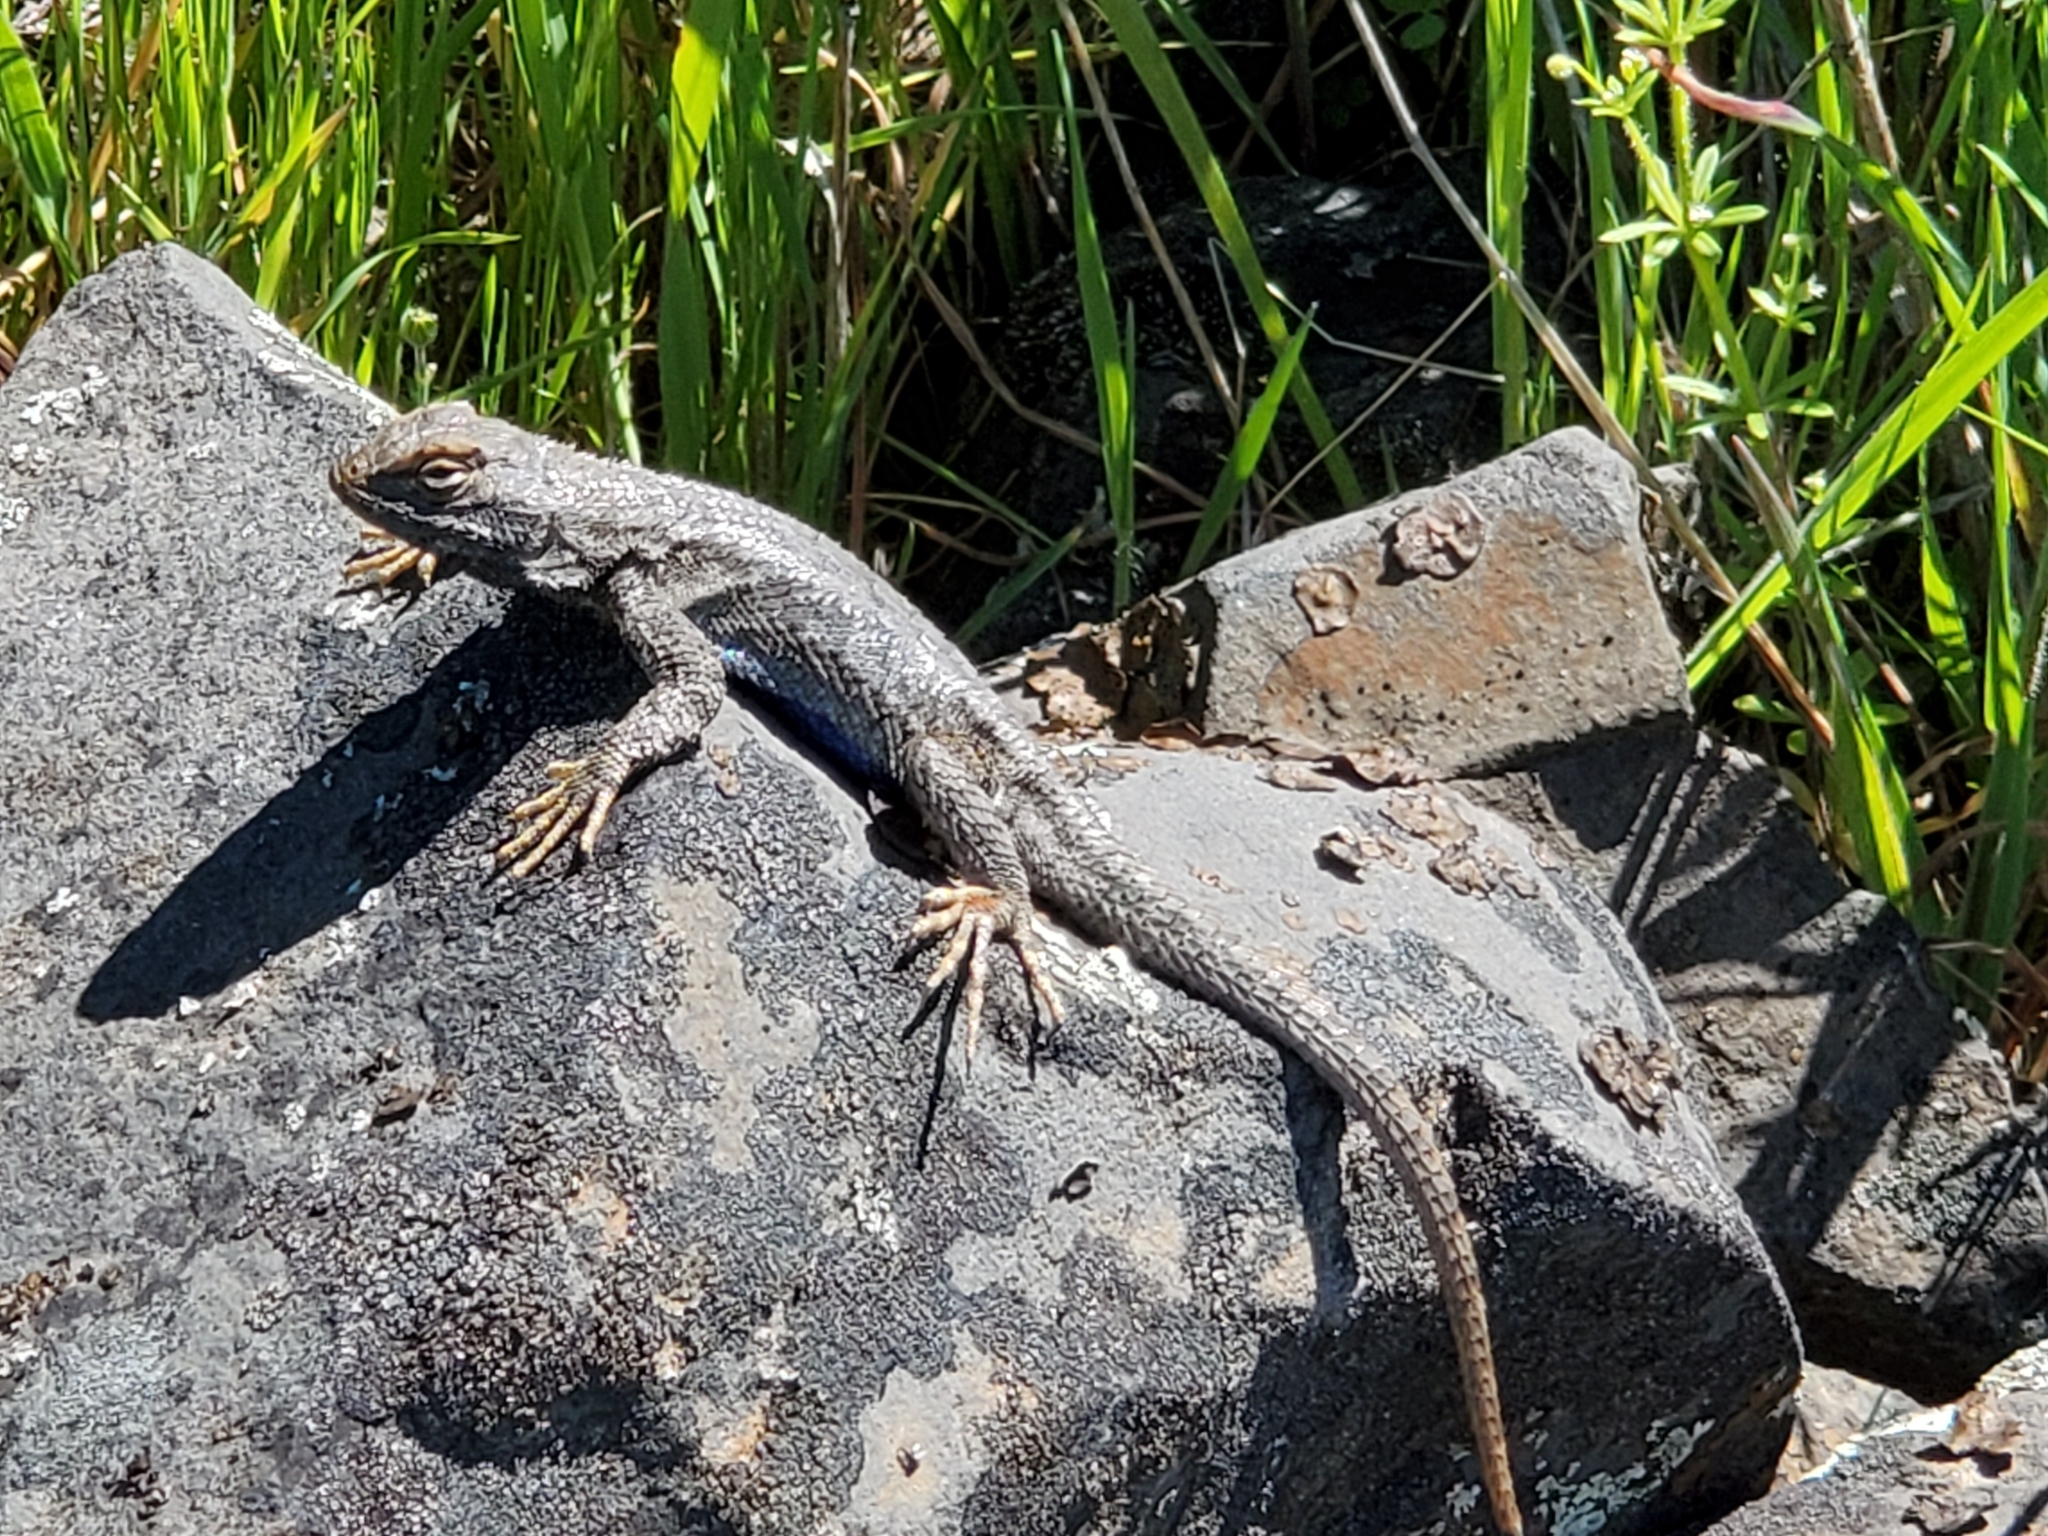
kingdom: Animalia
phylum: Chordata
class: Squamata
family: Phrynosomatidae
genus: Sceloporus
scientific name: Sceloporus occidentalis
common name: Western fence lizard
